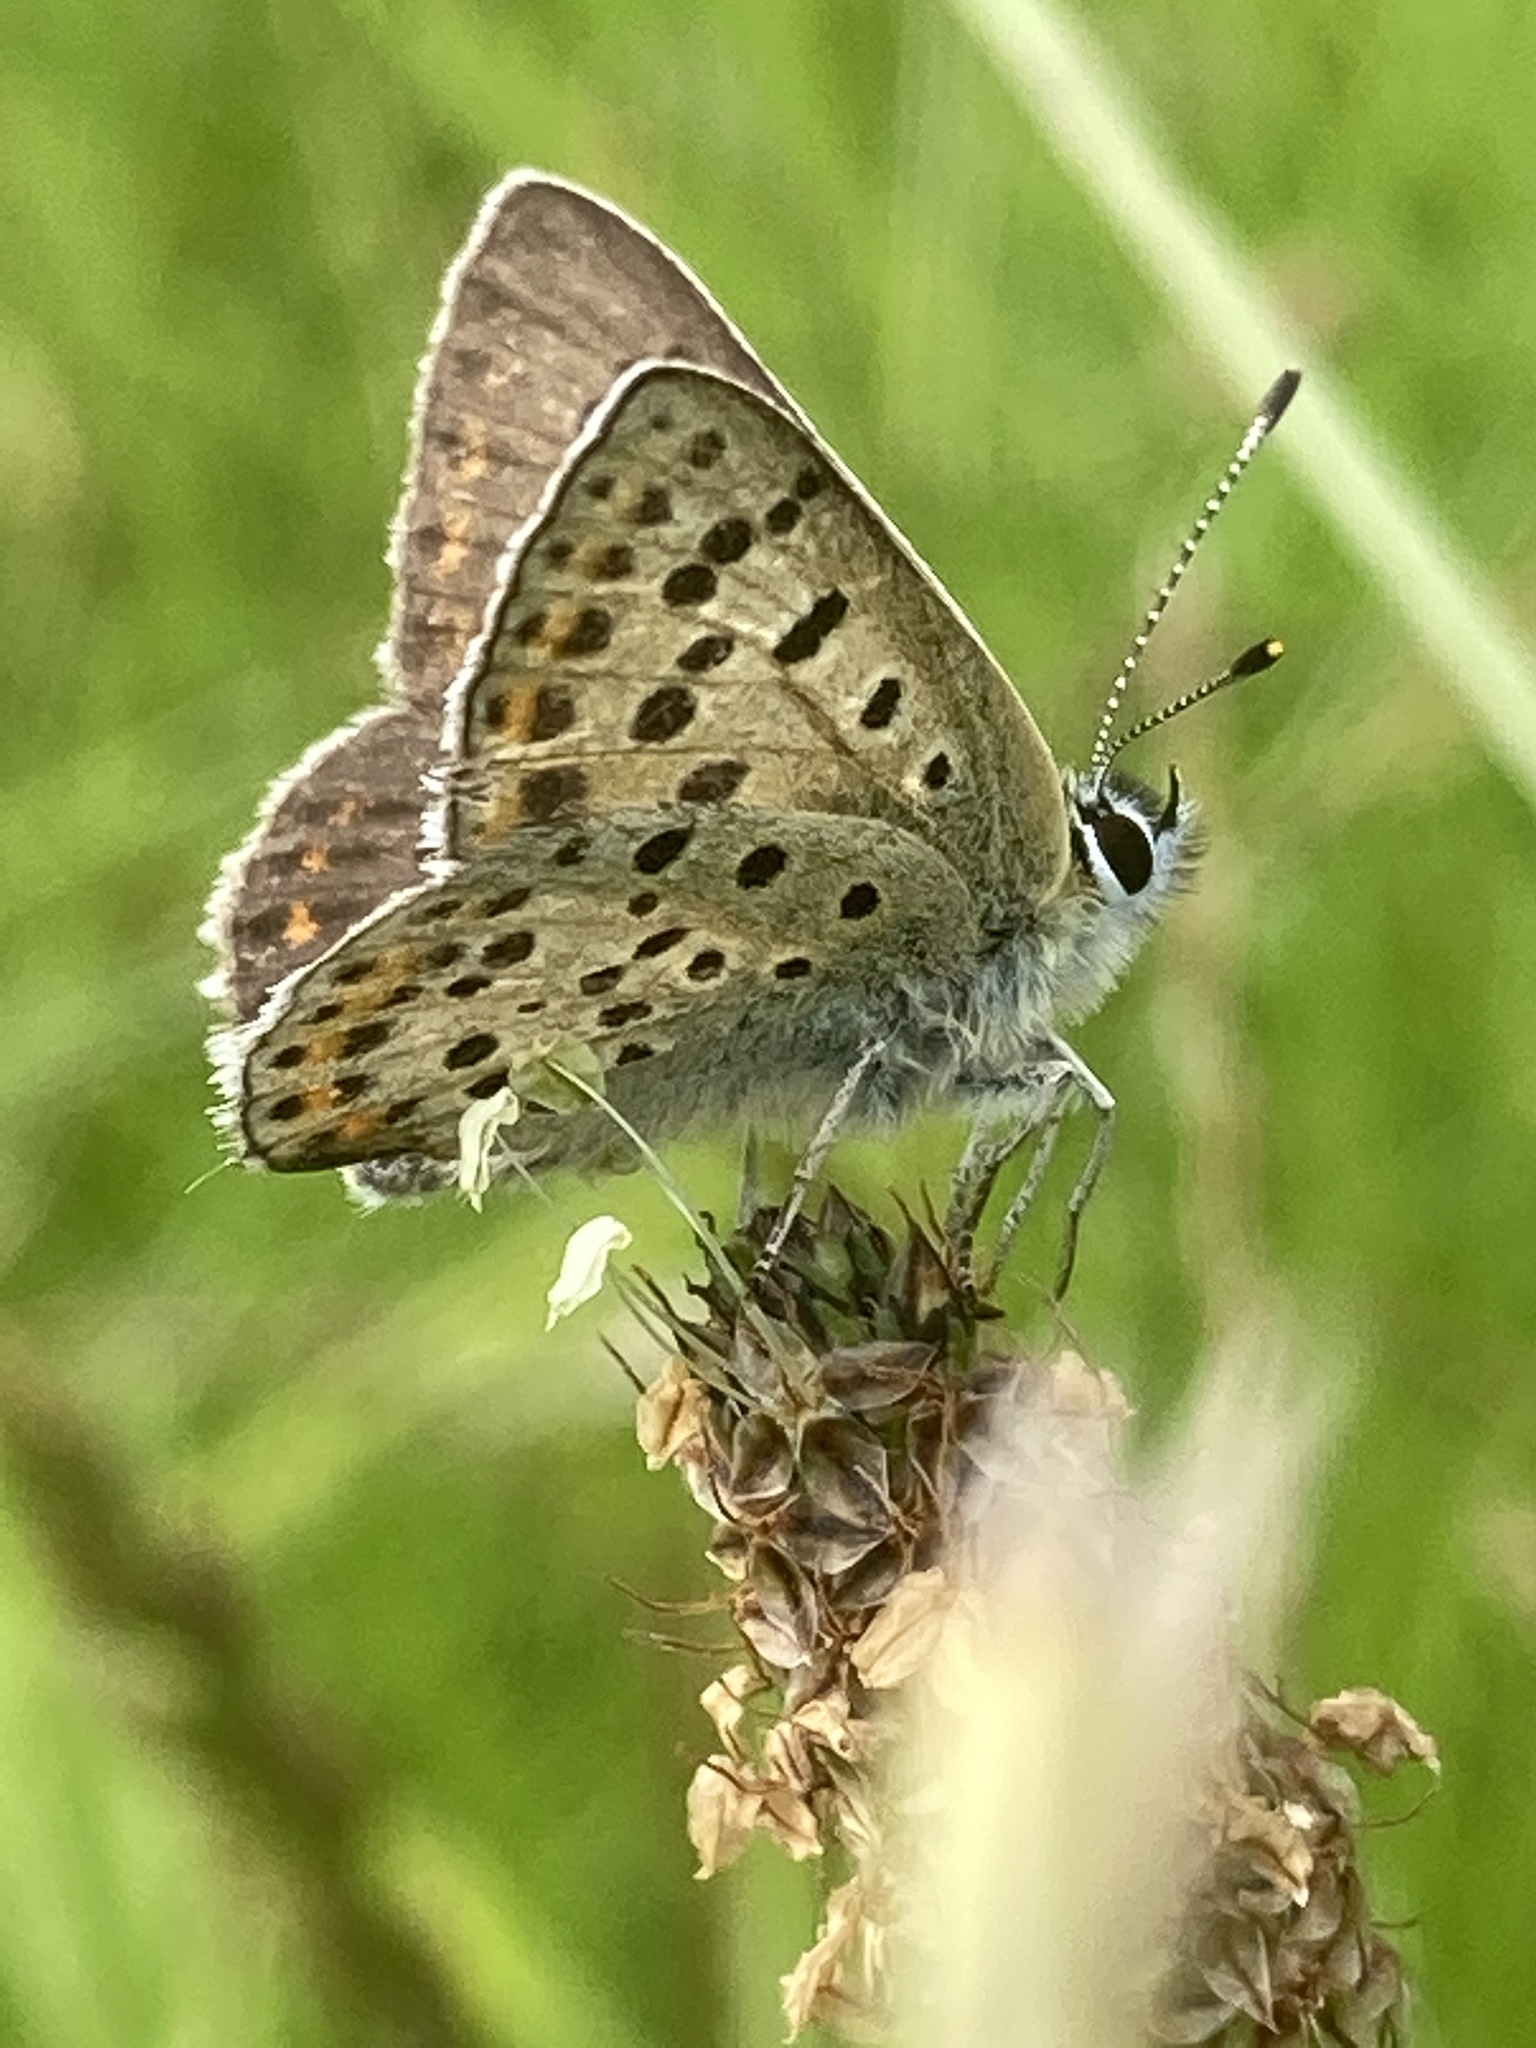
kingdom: Animalia
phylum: Arthropoda
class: Insecta
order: Lepidoptera
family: Lycaenidae
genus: Loweia
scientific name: Loweia tityrus
